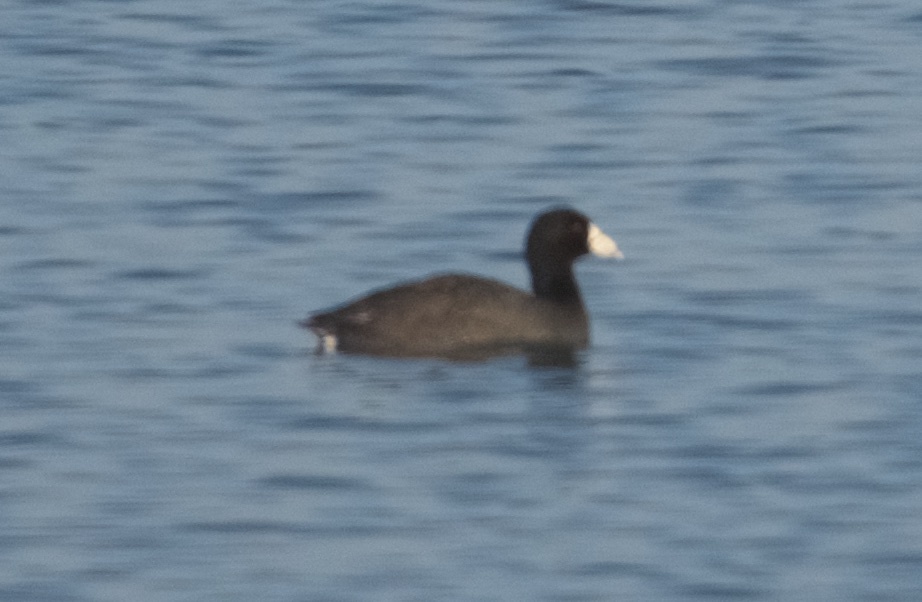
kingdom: Animalia
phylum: Chordata
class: Aves
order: Gruiformes
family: Rallidae
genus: Fulica
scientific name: Fulica americana
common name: American coot
